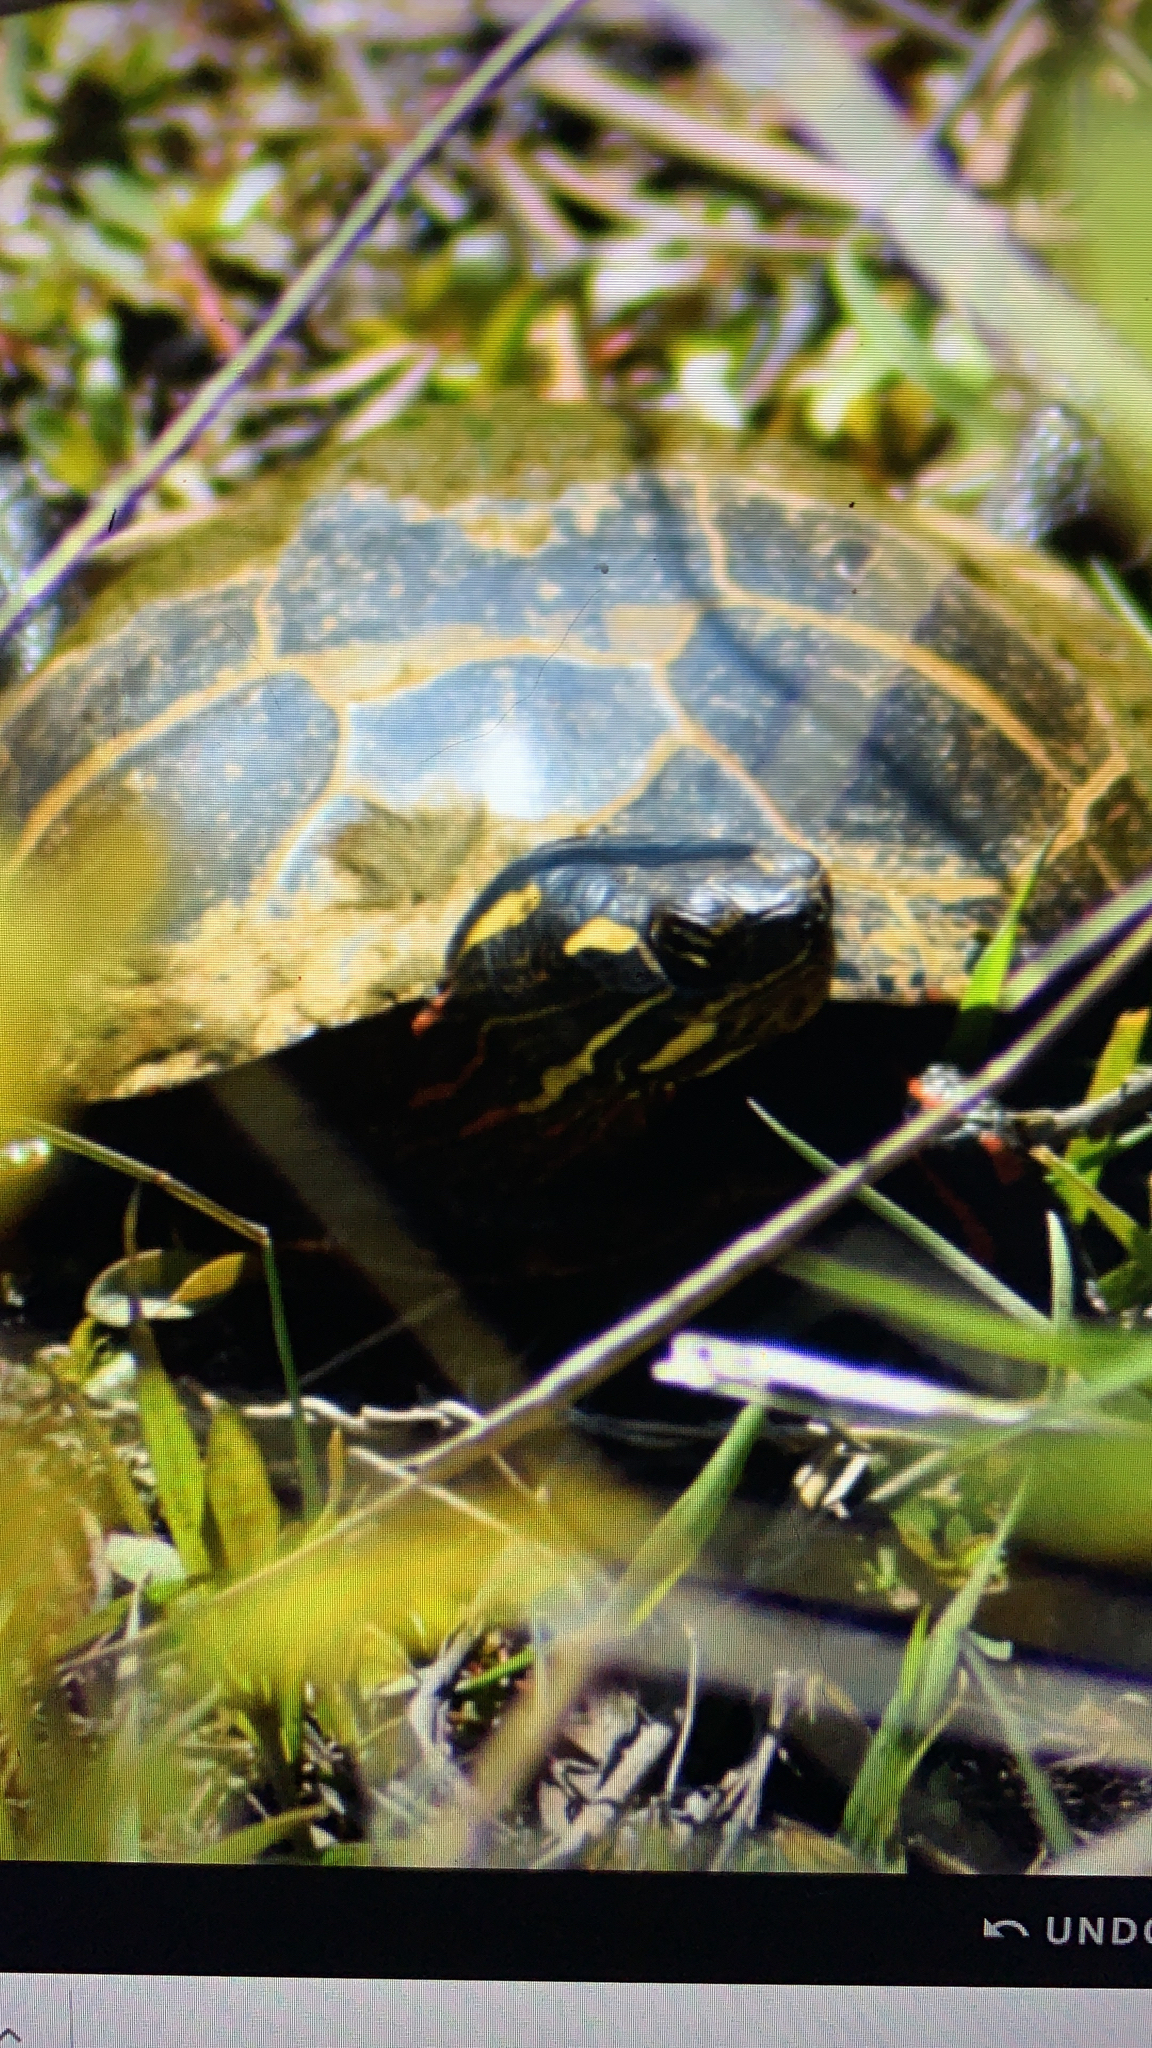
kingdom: Animalia
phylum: Chordata
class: Testudines
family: Emydidae
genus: Chrysemys
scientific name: Chrysemys picta
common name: Painted turtle
